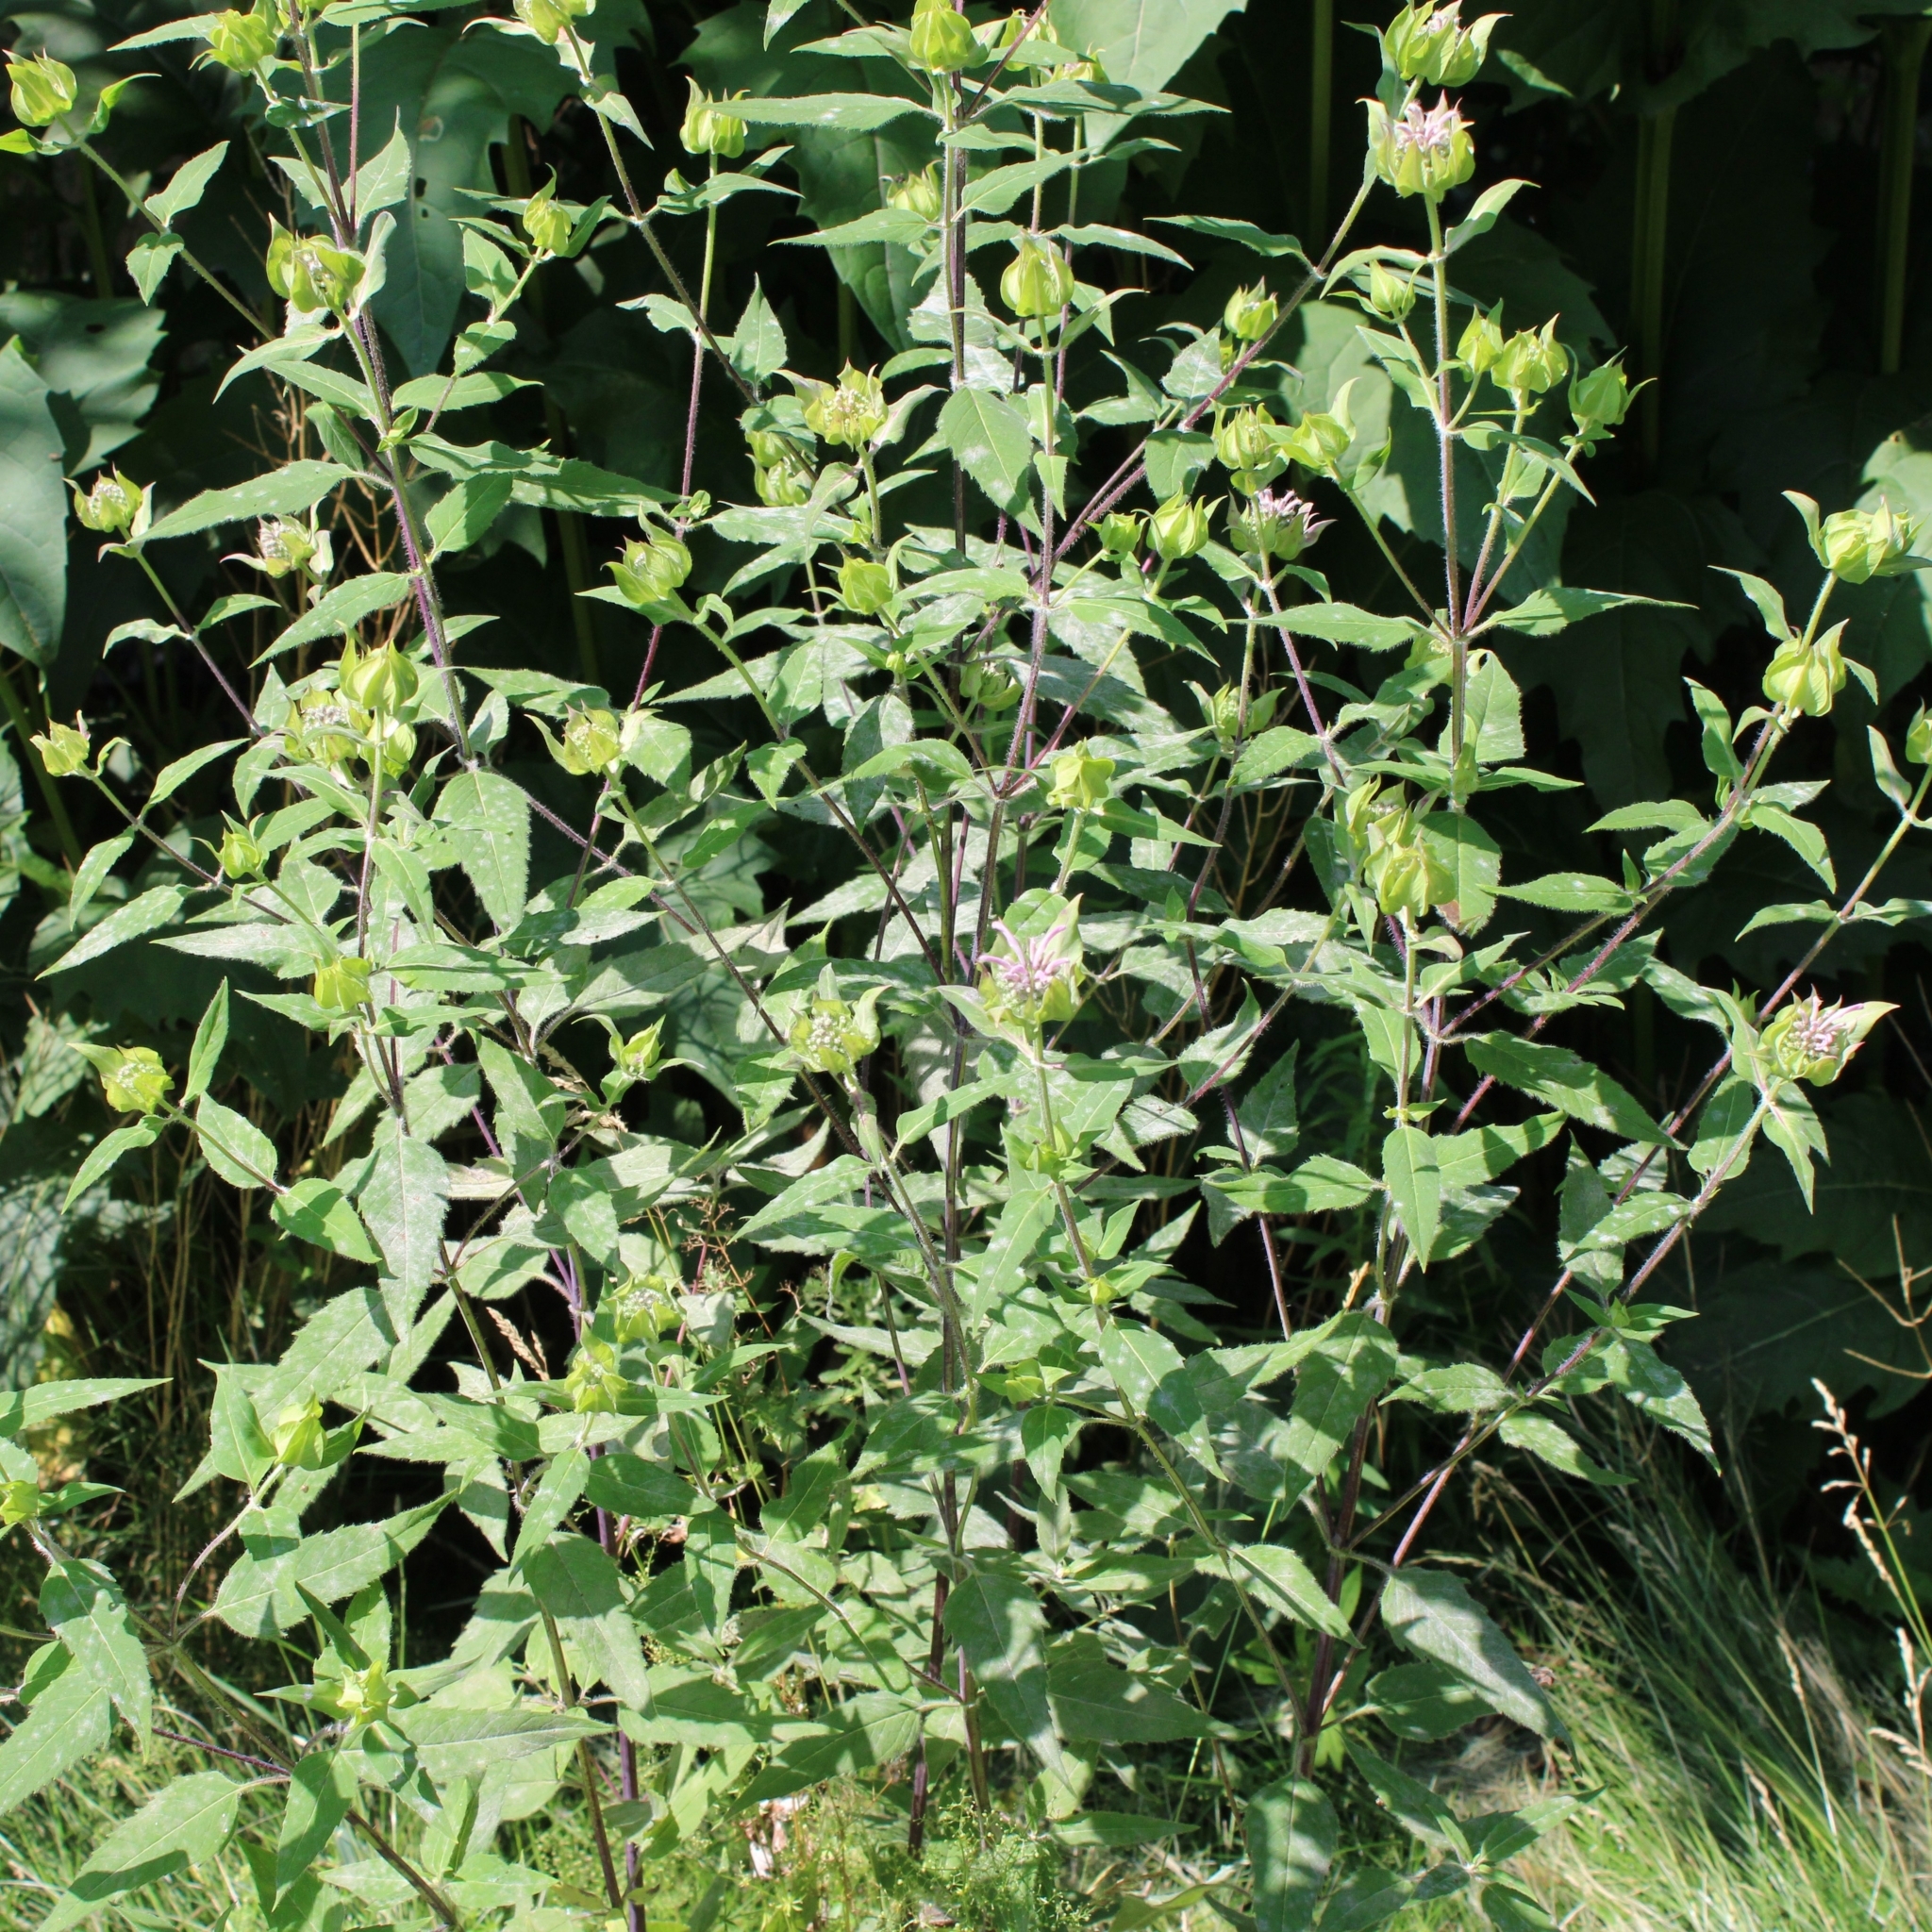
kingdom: Plantae
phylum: Tracheophyta
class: Magnoliopsida
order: Lamiales
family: Lamiaceae
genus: Monarda
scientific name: Monarda fistulosa
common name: Purple beebalm
